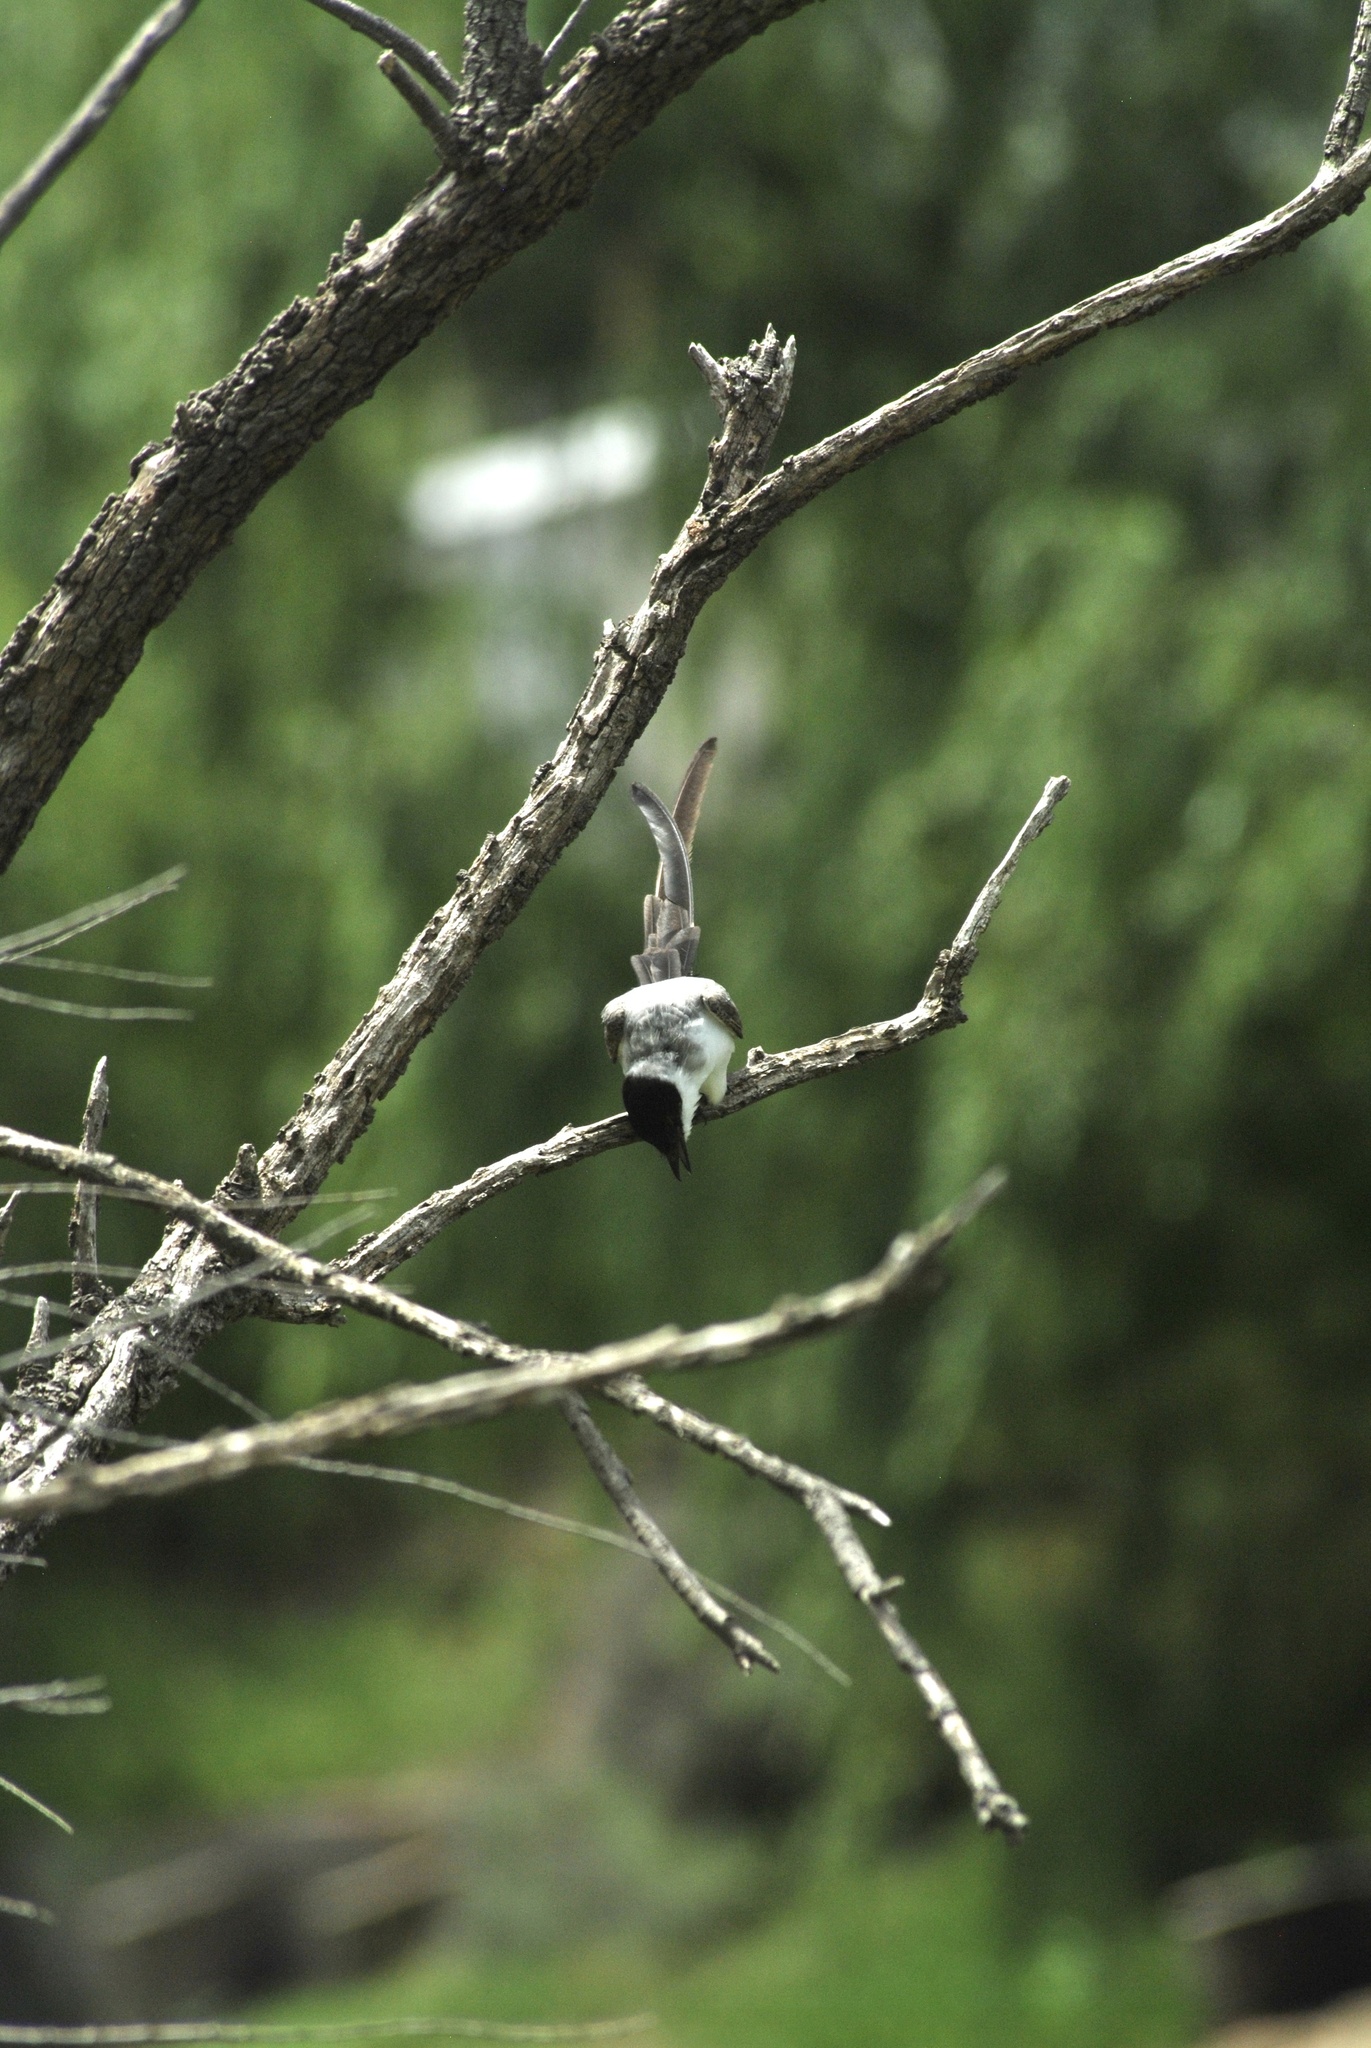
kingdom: Animalia
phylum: Chordata
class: Aves
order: Passeriformes
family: Tyrannidae
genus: Tyrannus
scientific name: Tyrannus savana
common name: Fork-tailed flycatcher
